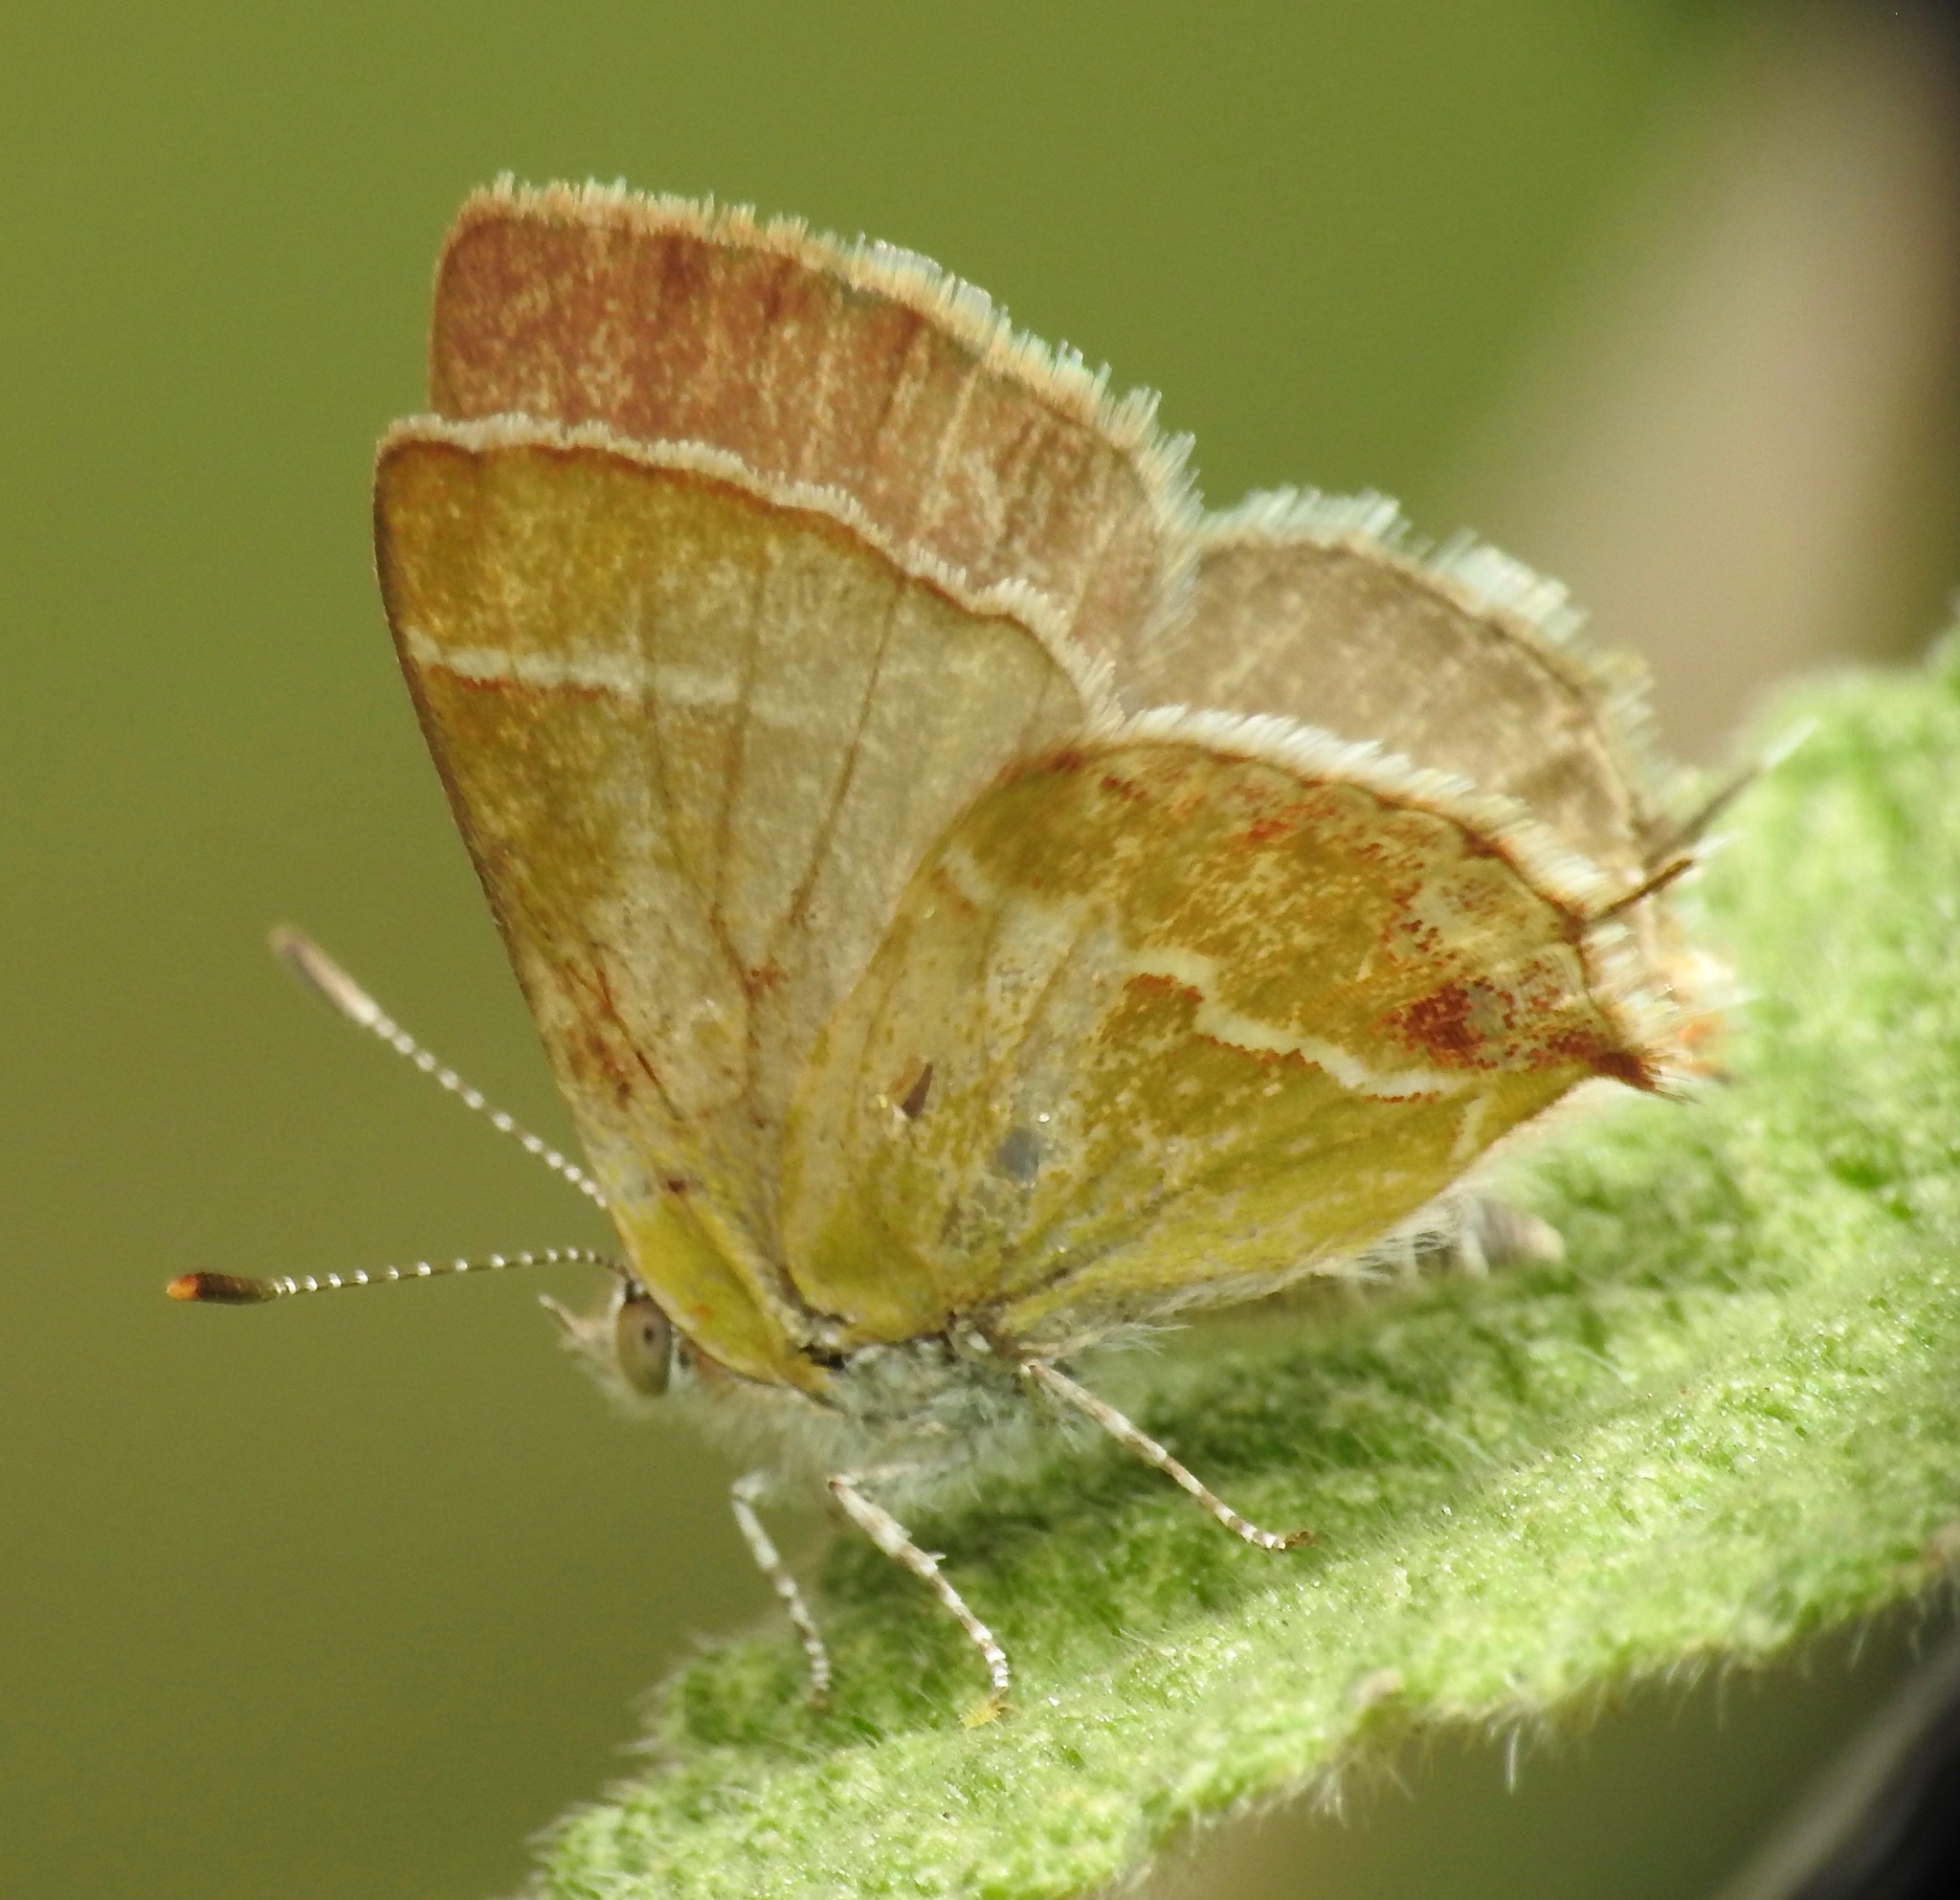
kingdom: Animalia
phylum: Arthropoda
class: Insecta
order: Lepidoptera
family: Lycaenidae
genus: Chlorostrymon
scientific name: Chlorostrymon simaethis
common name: Silver-banded hairstreak
